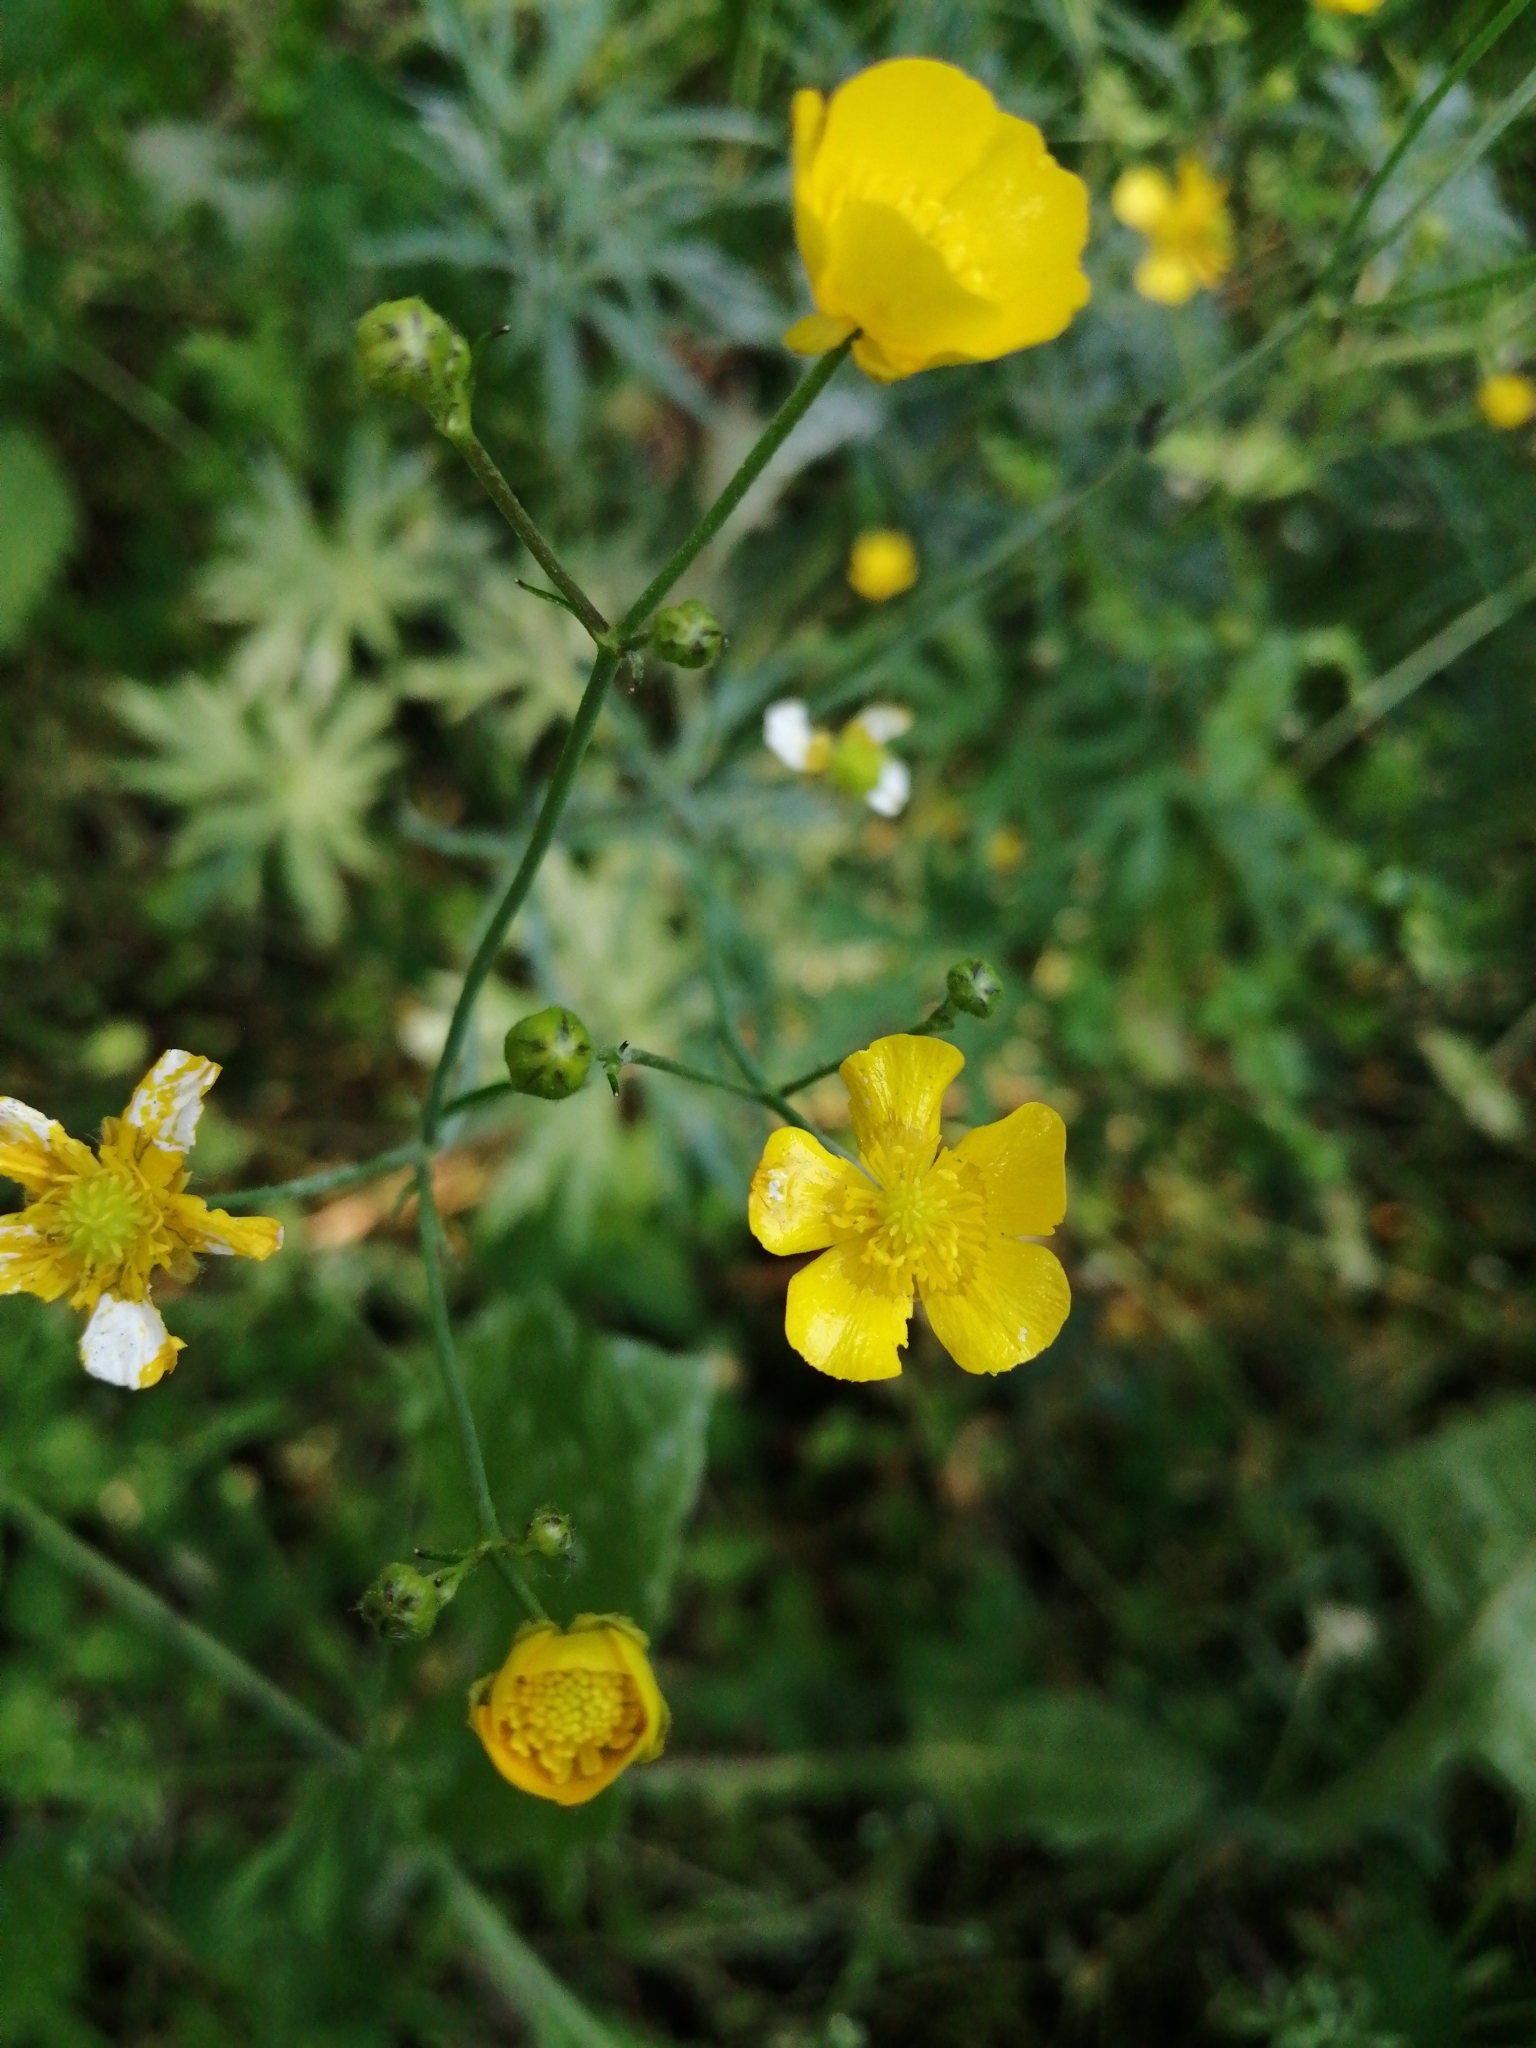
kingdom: Plantae
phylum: Tracheophyta
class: Magnoliopsida
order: Ranunculales
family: Ranunculaceae
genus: Ranunculus
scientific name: Ranunculus acris
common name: Meadow buttercup
